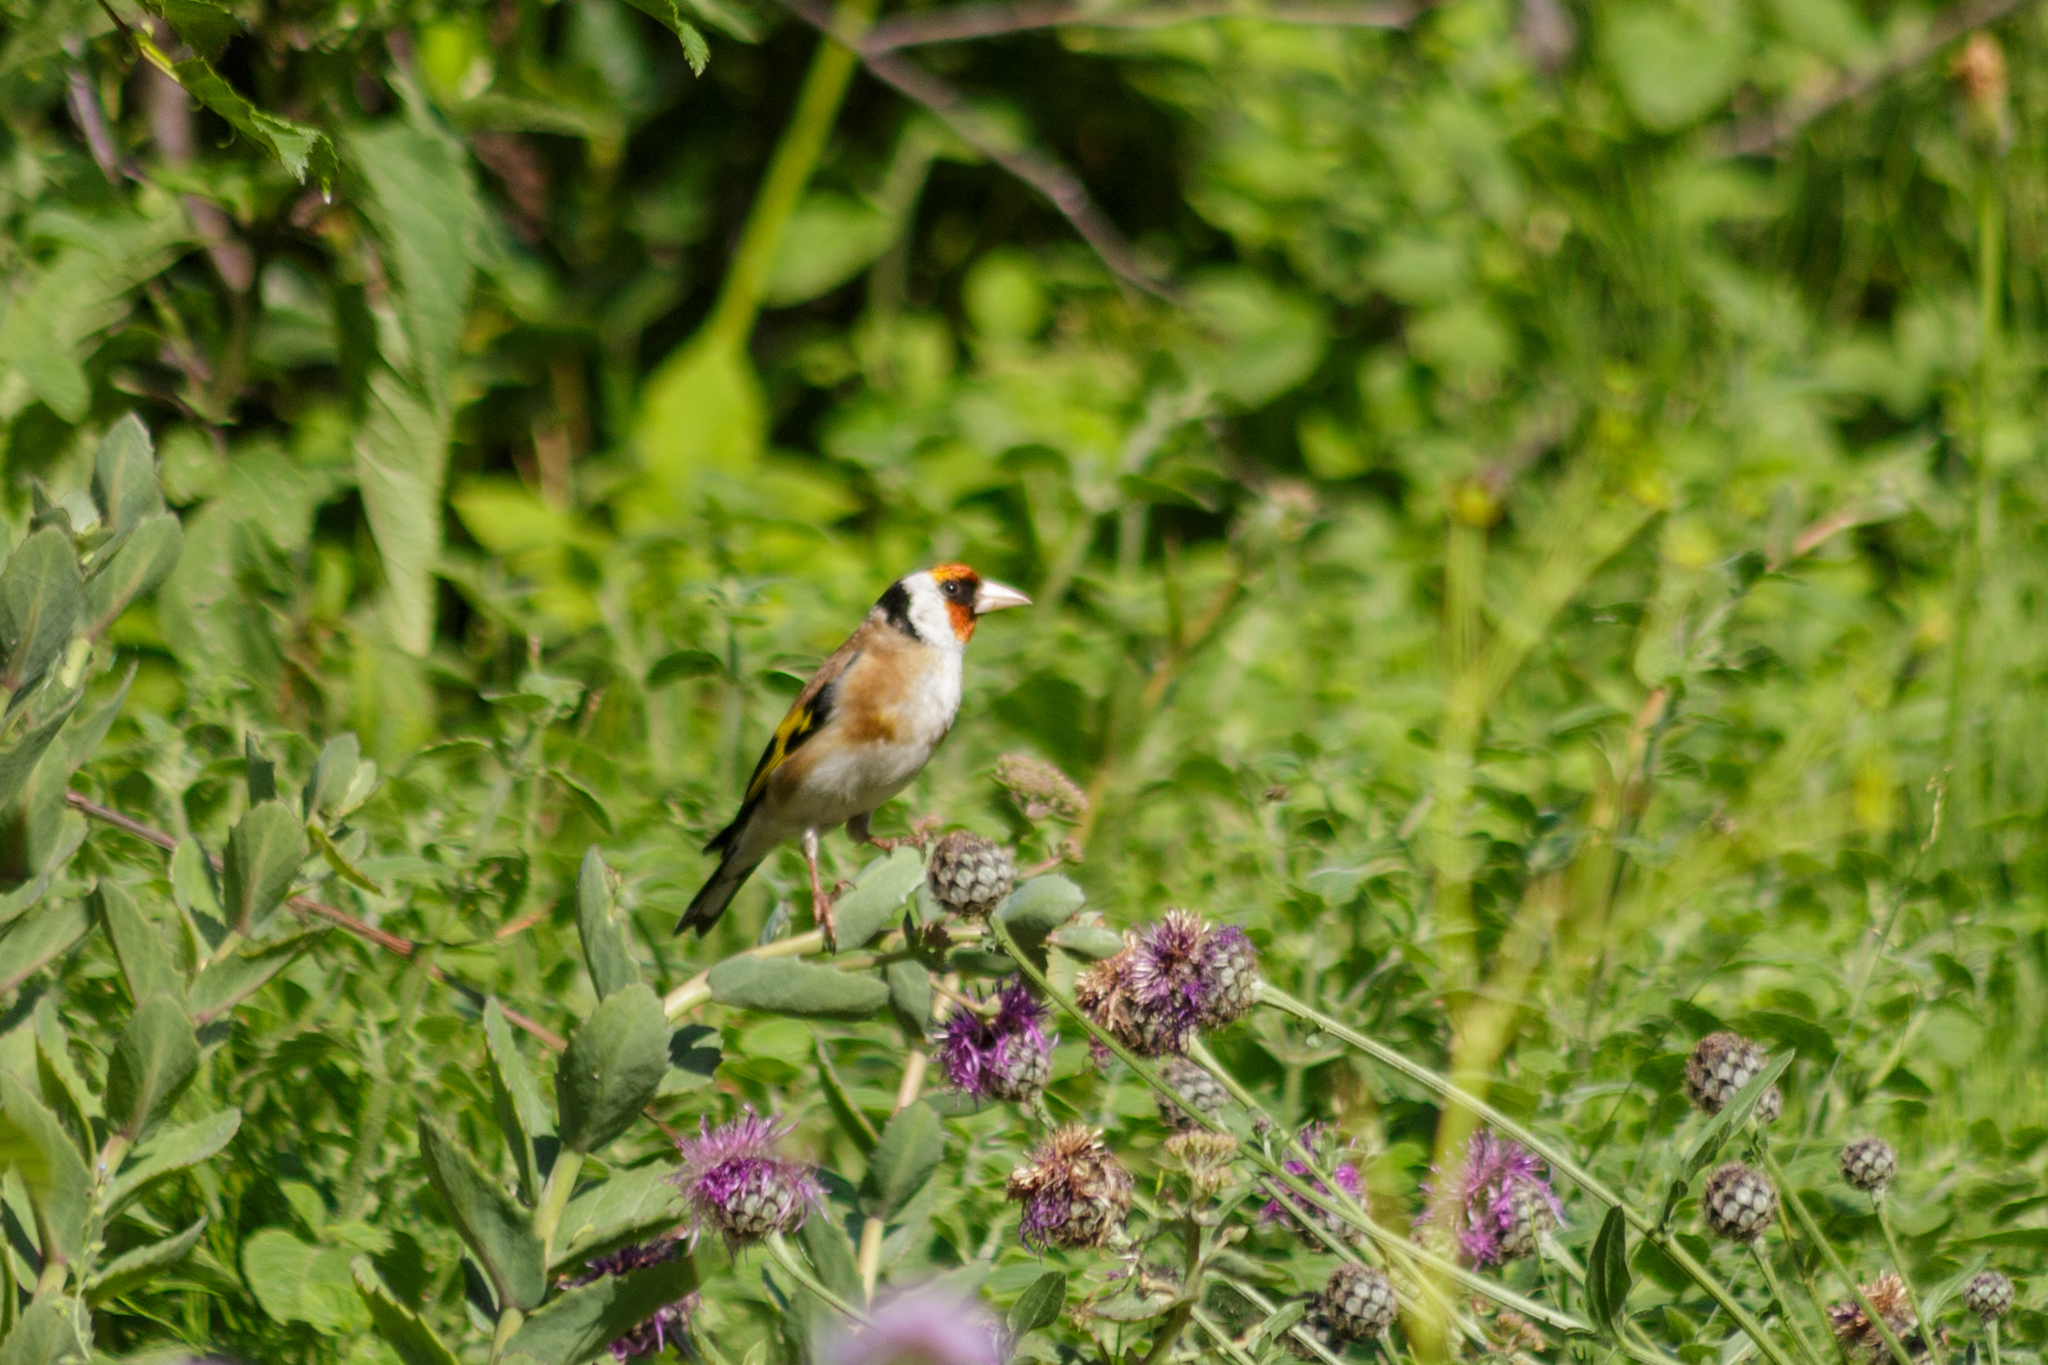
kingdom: Animalia
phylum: Chordata
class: Aves
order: Passeriformes
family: Fringillidae
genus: Carduelis
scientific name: Carduelis carduelis
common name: European goldfinch
